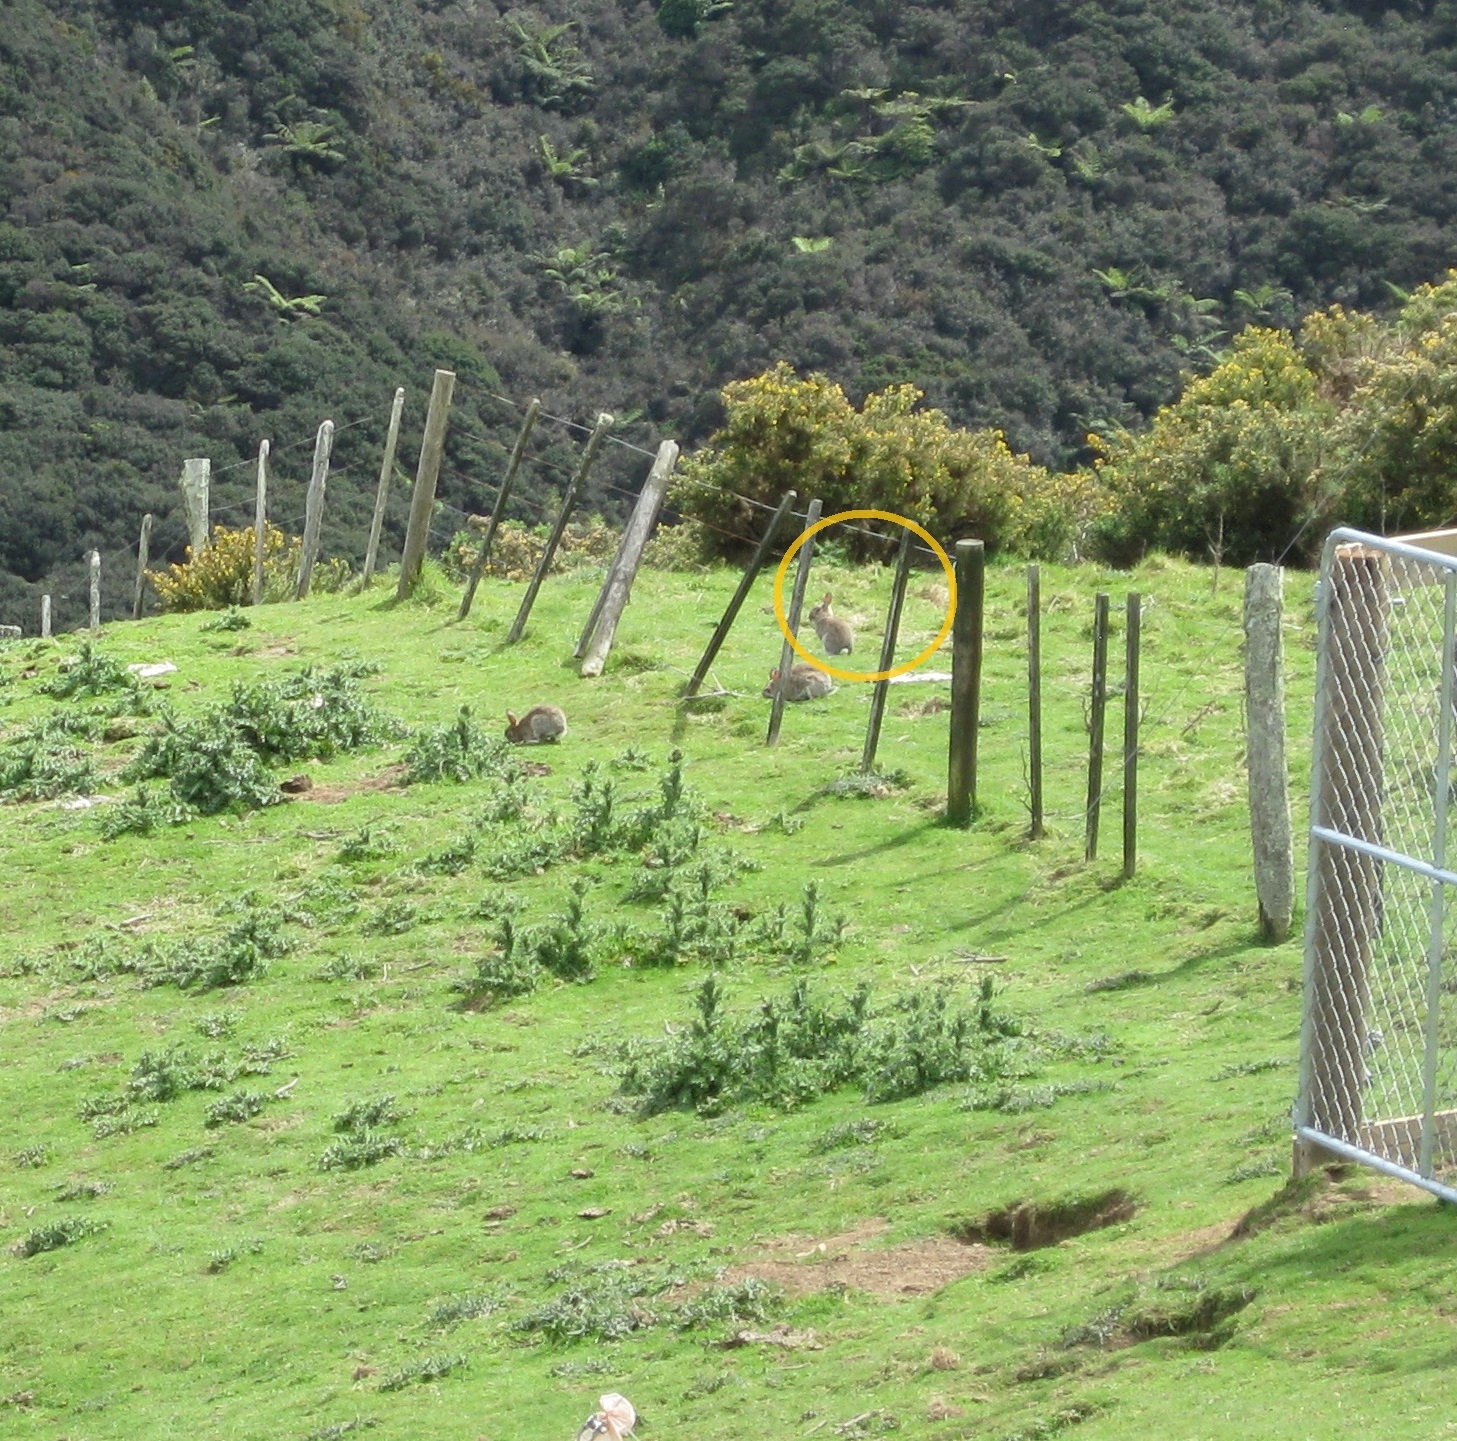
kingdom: Animalia
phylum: Chordata
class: Mammalia
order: Lagomorpha
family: Leporidae
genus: Oryctolagus
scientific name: Oryctolagus cuniculus
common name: European rabbit
